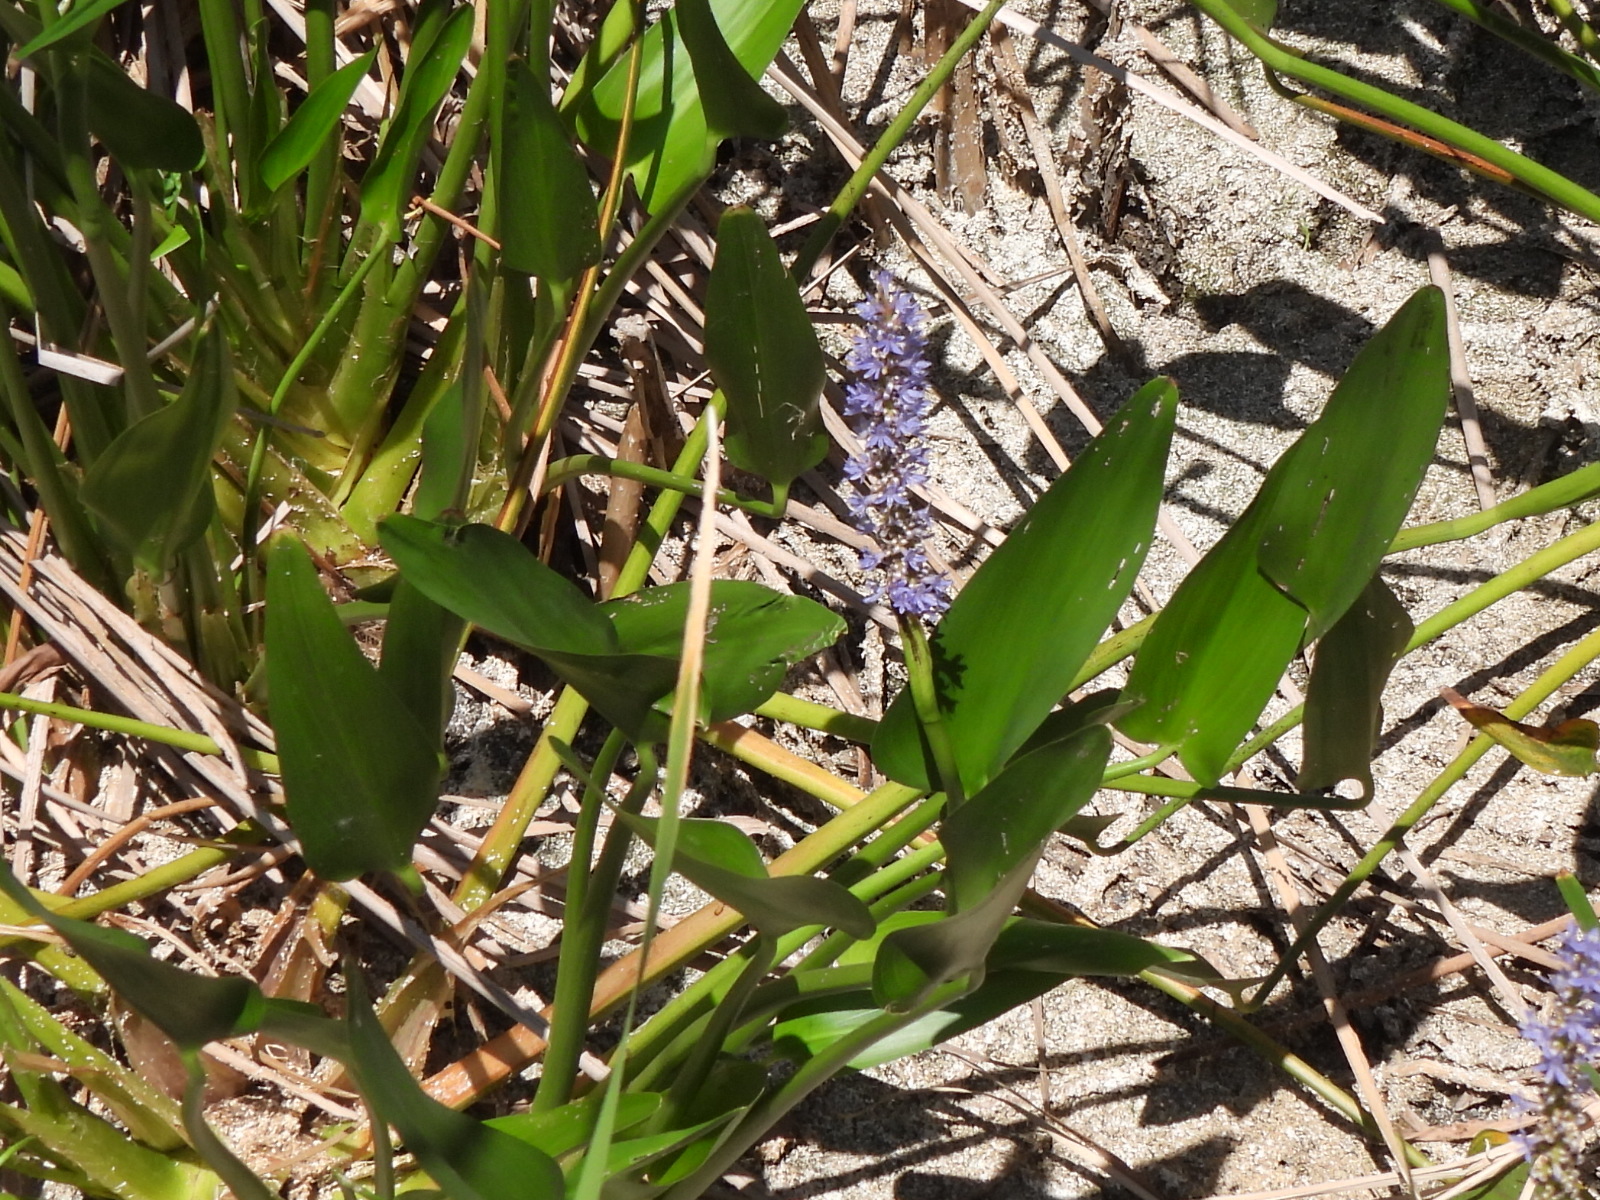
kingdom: Plantae
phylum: Tracheophyta
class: Liliopsida
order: Commelinales
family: Pontederiaceae
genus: Pontederia
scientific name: Pontederia cordata
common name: Pickerelweed
